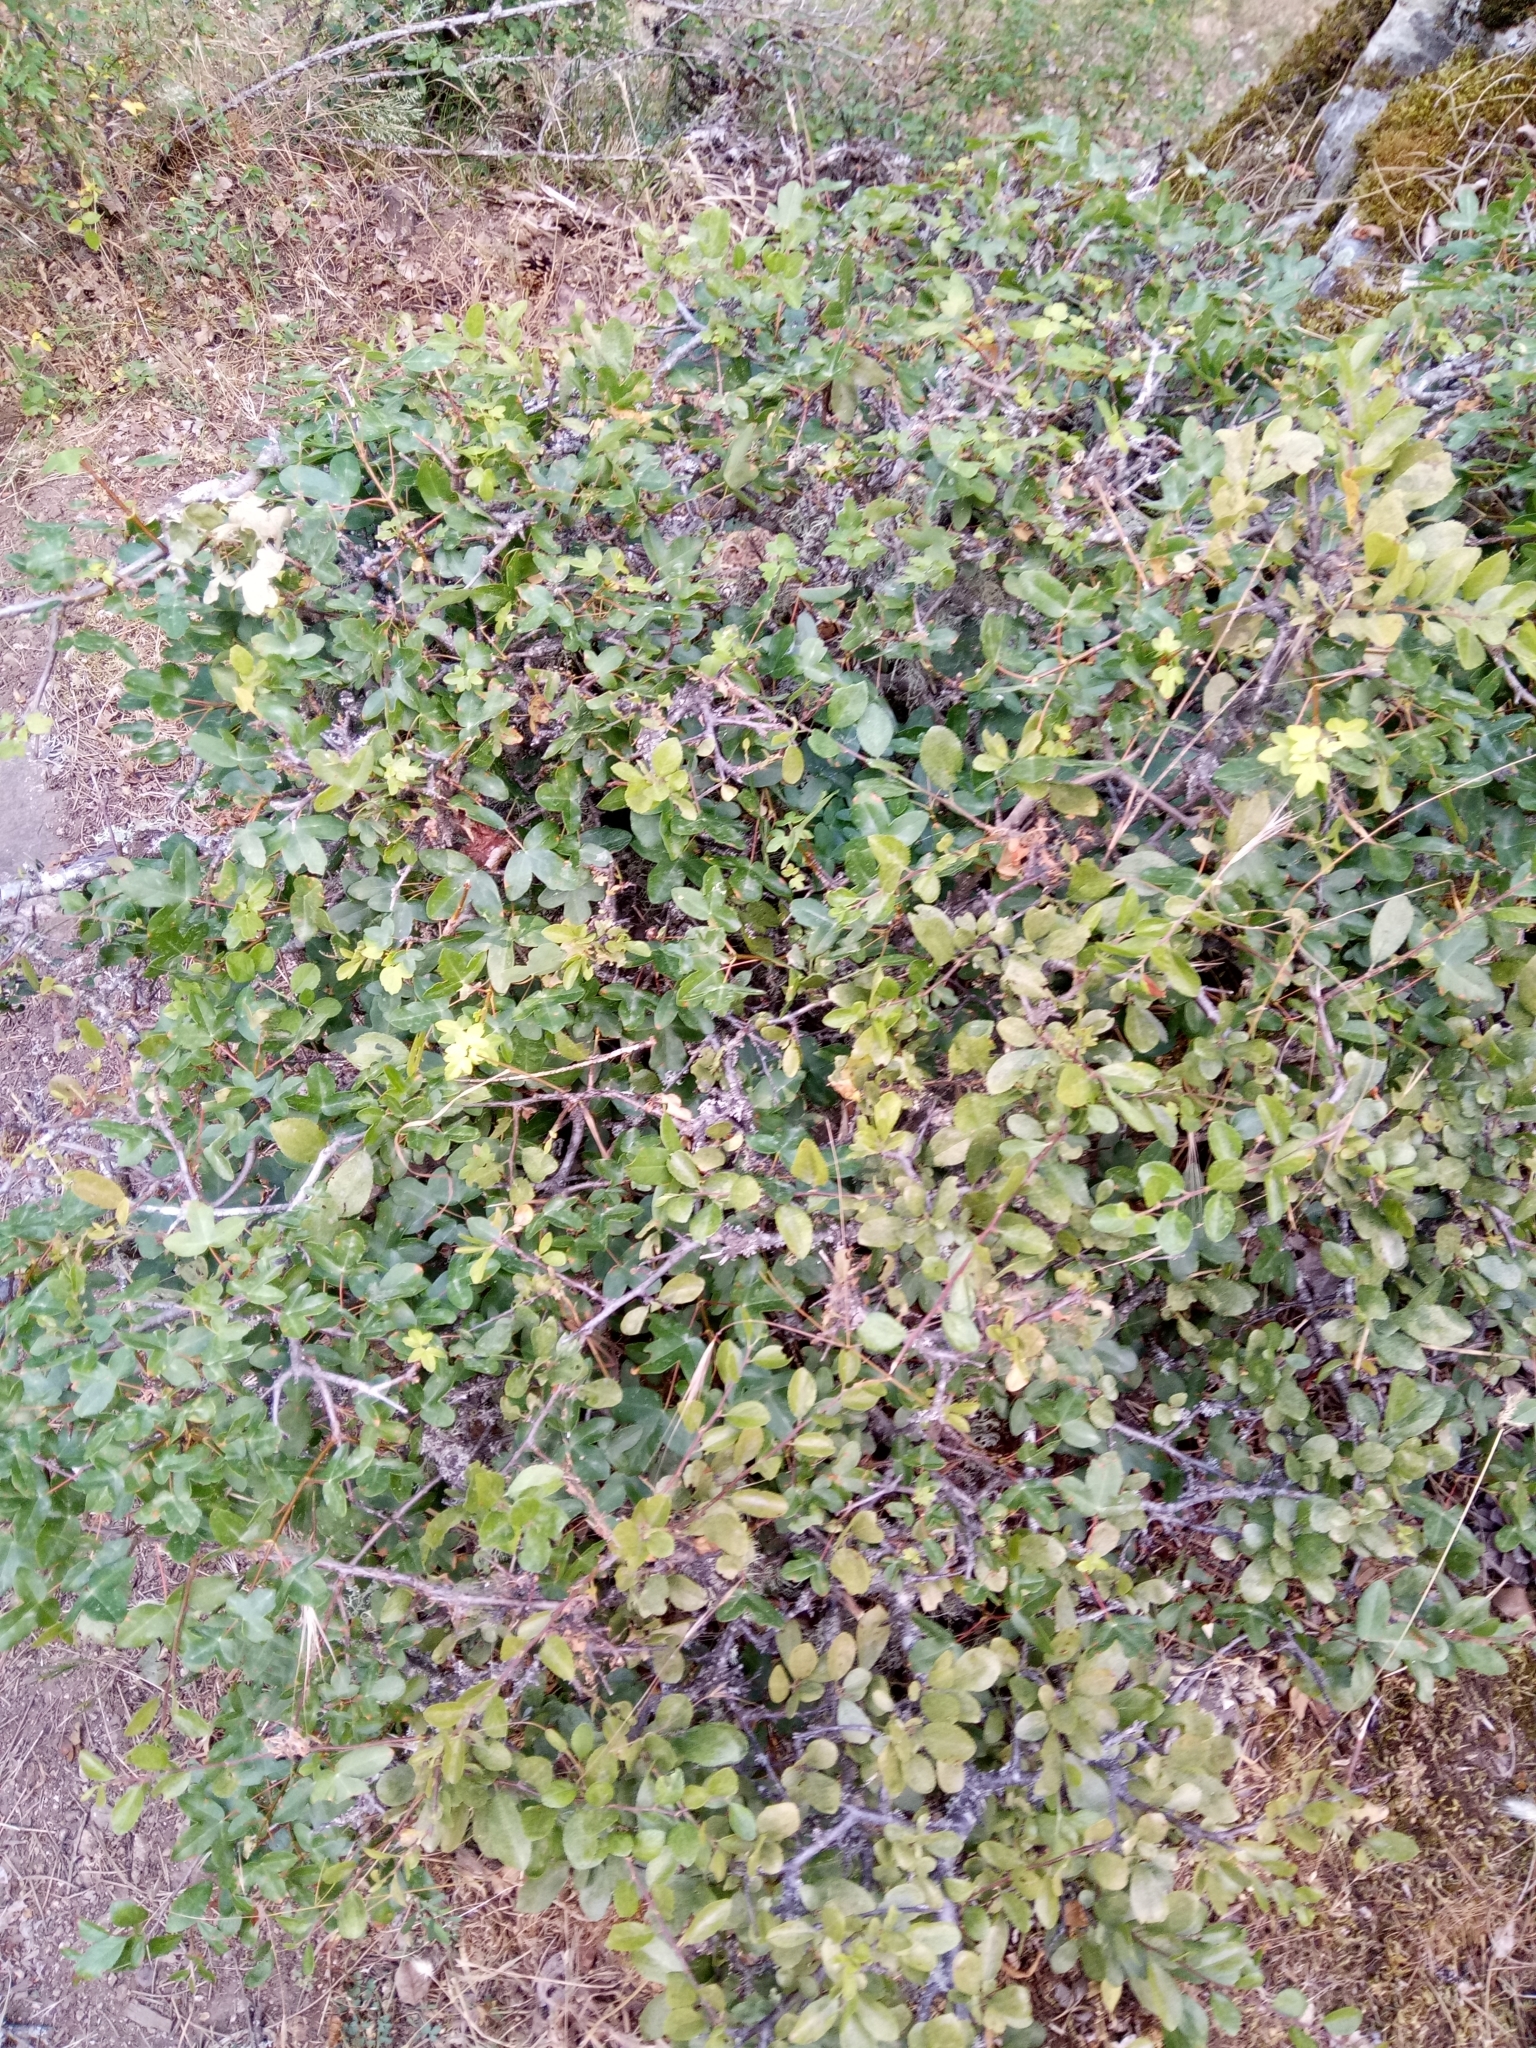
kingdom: Plantae
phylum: Tracheophyta
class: Magnoliopsida
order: Rosales
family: Rosaceae
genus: Prunus
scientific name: Prunus spinosa
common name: Blackthorn
